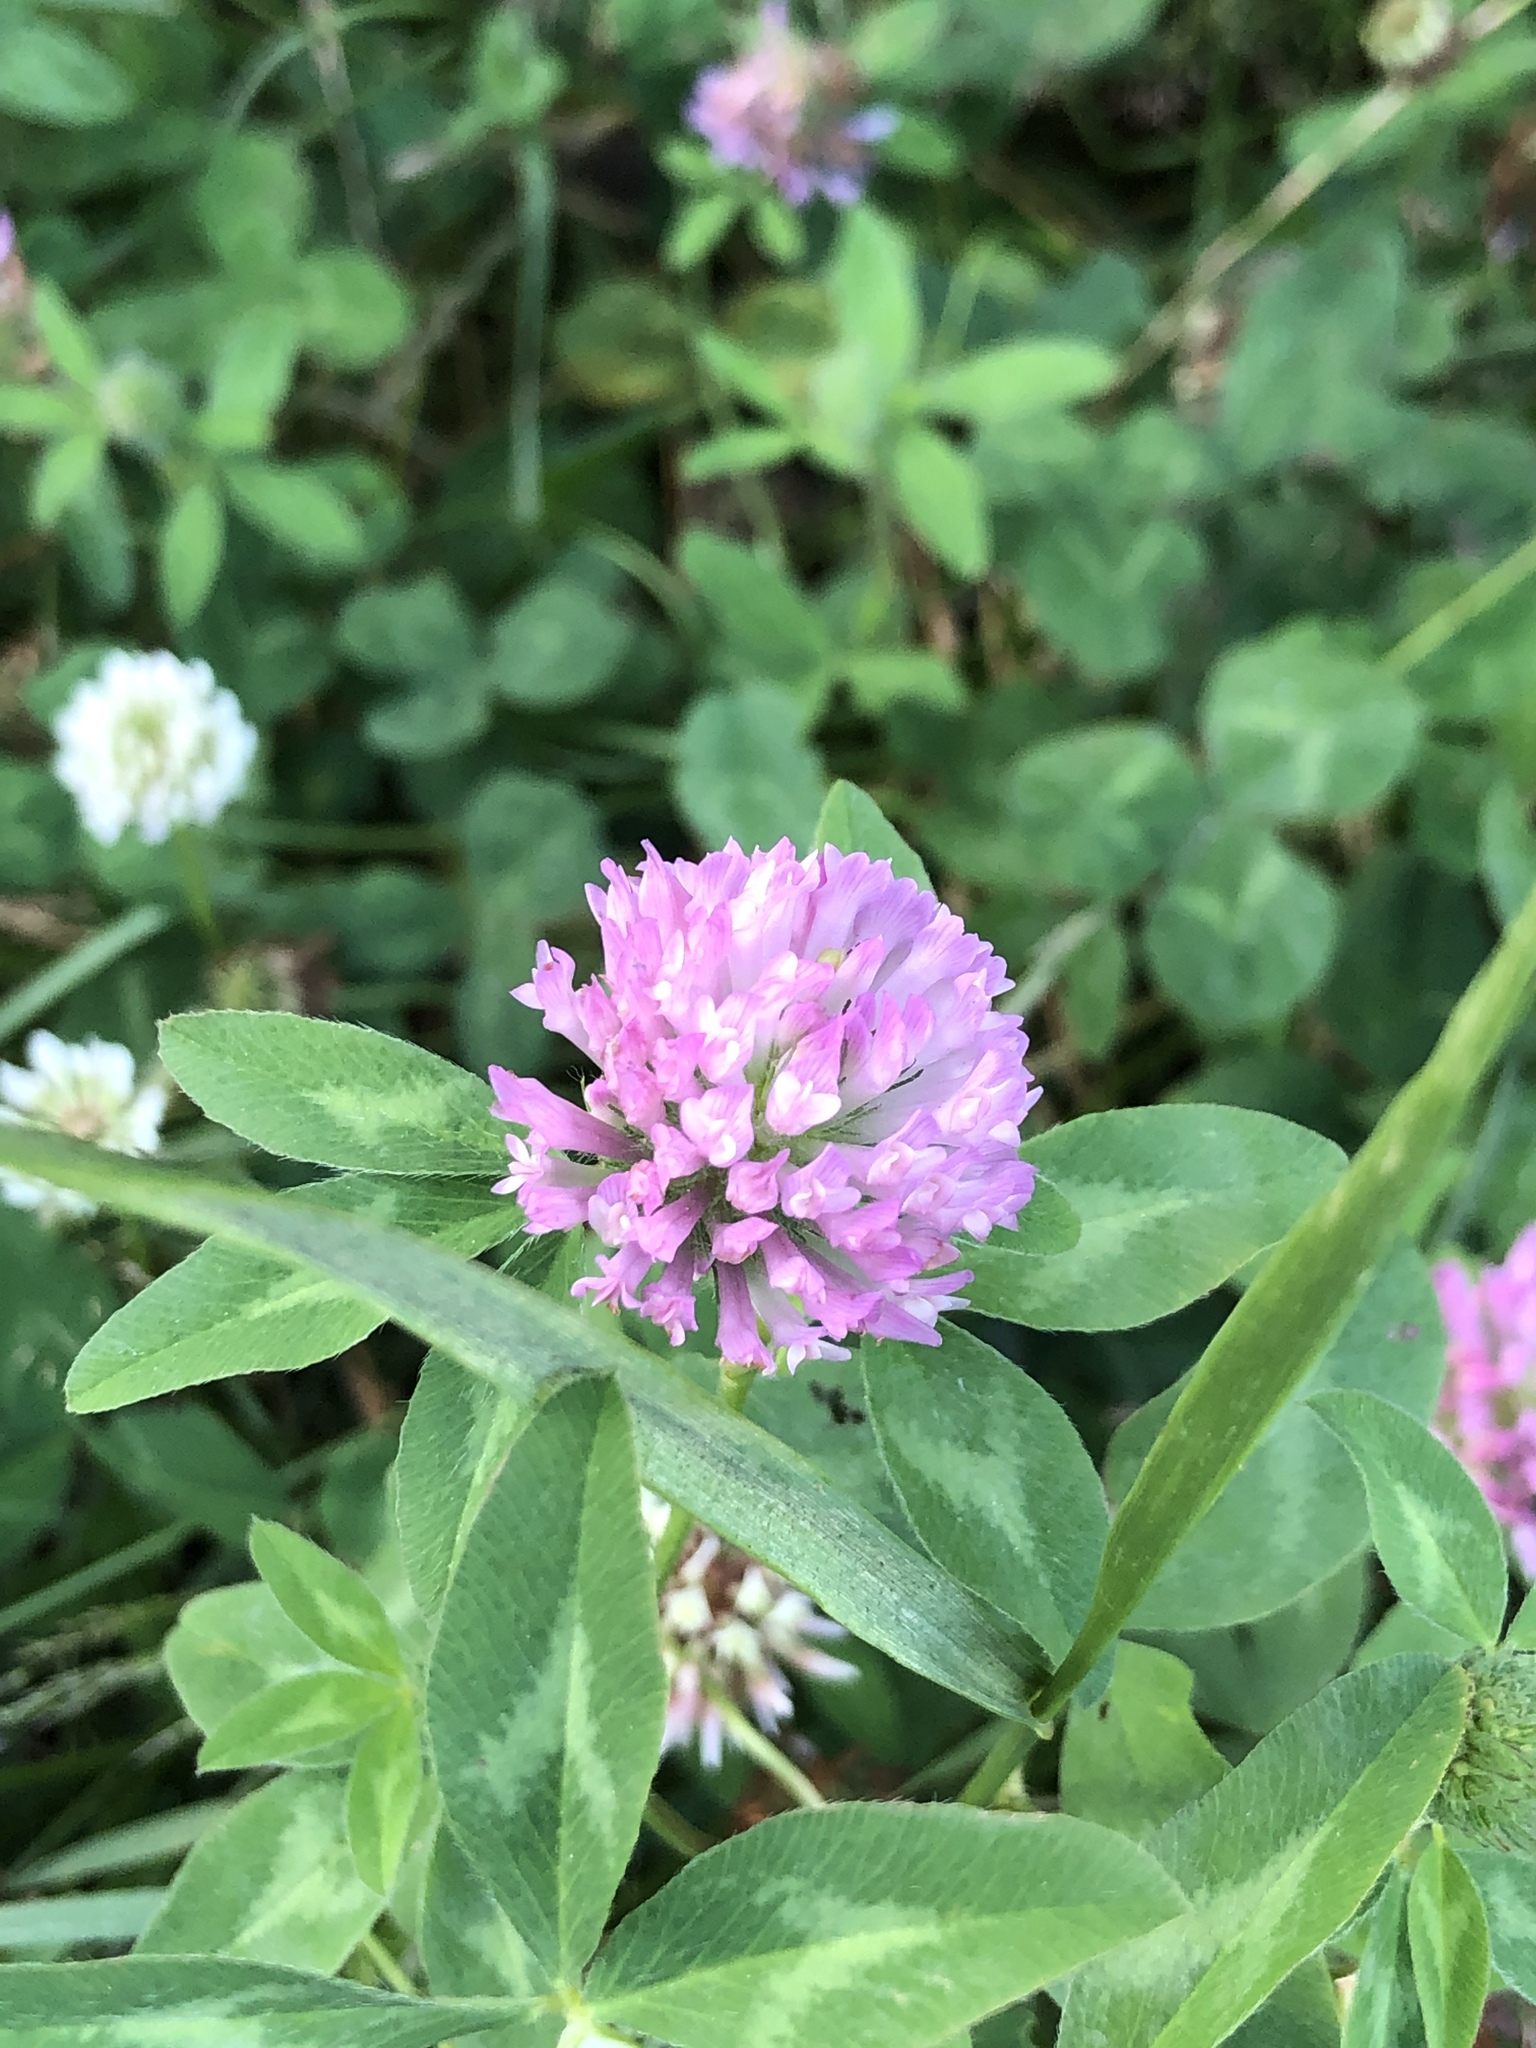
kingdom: Plantae
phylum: Tracheophyta
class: Magnoliopsida
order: Fabales
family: Fabaceae
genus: Trifolium
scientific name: Trifolium pratense
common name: Red clover
